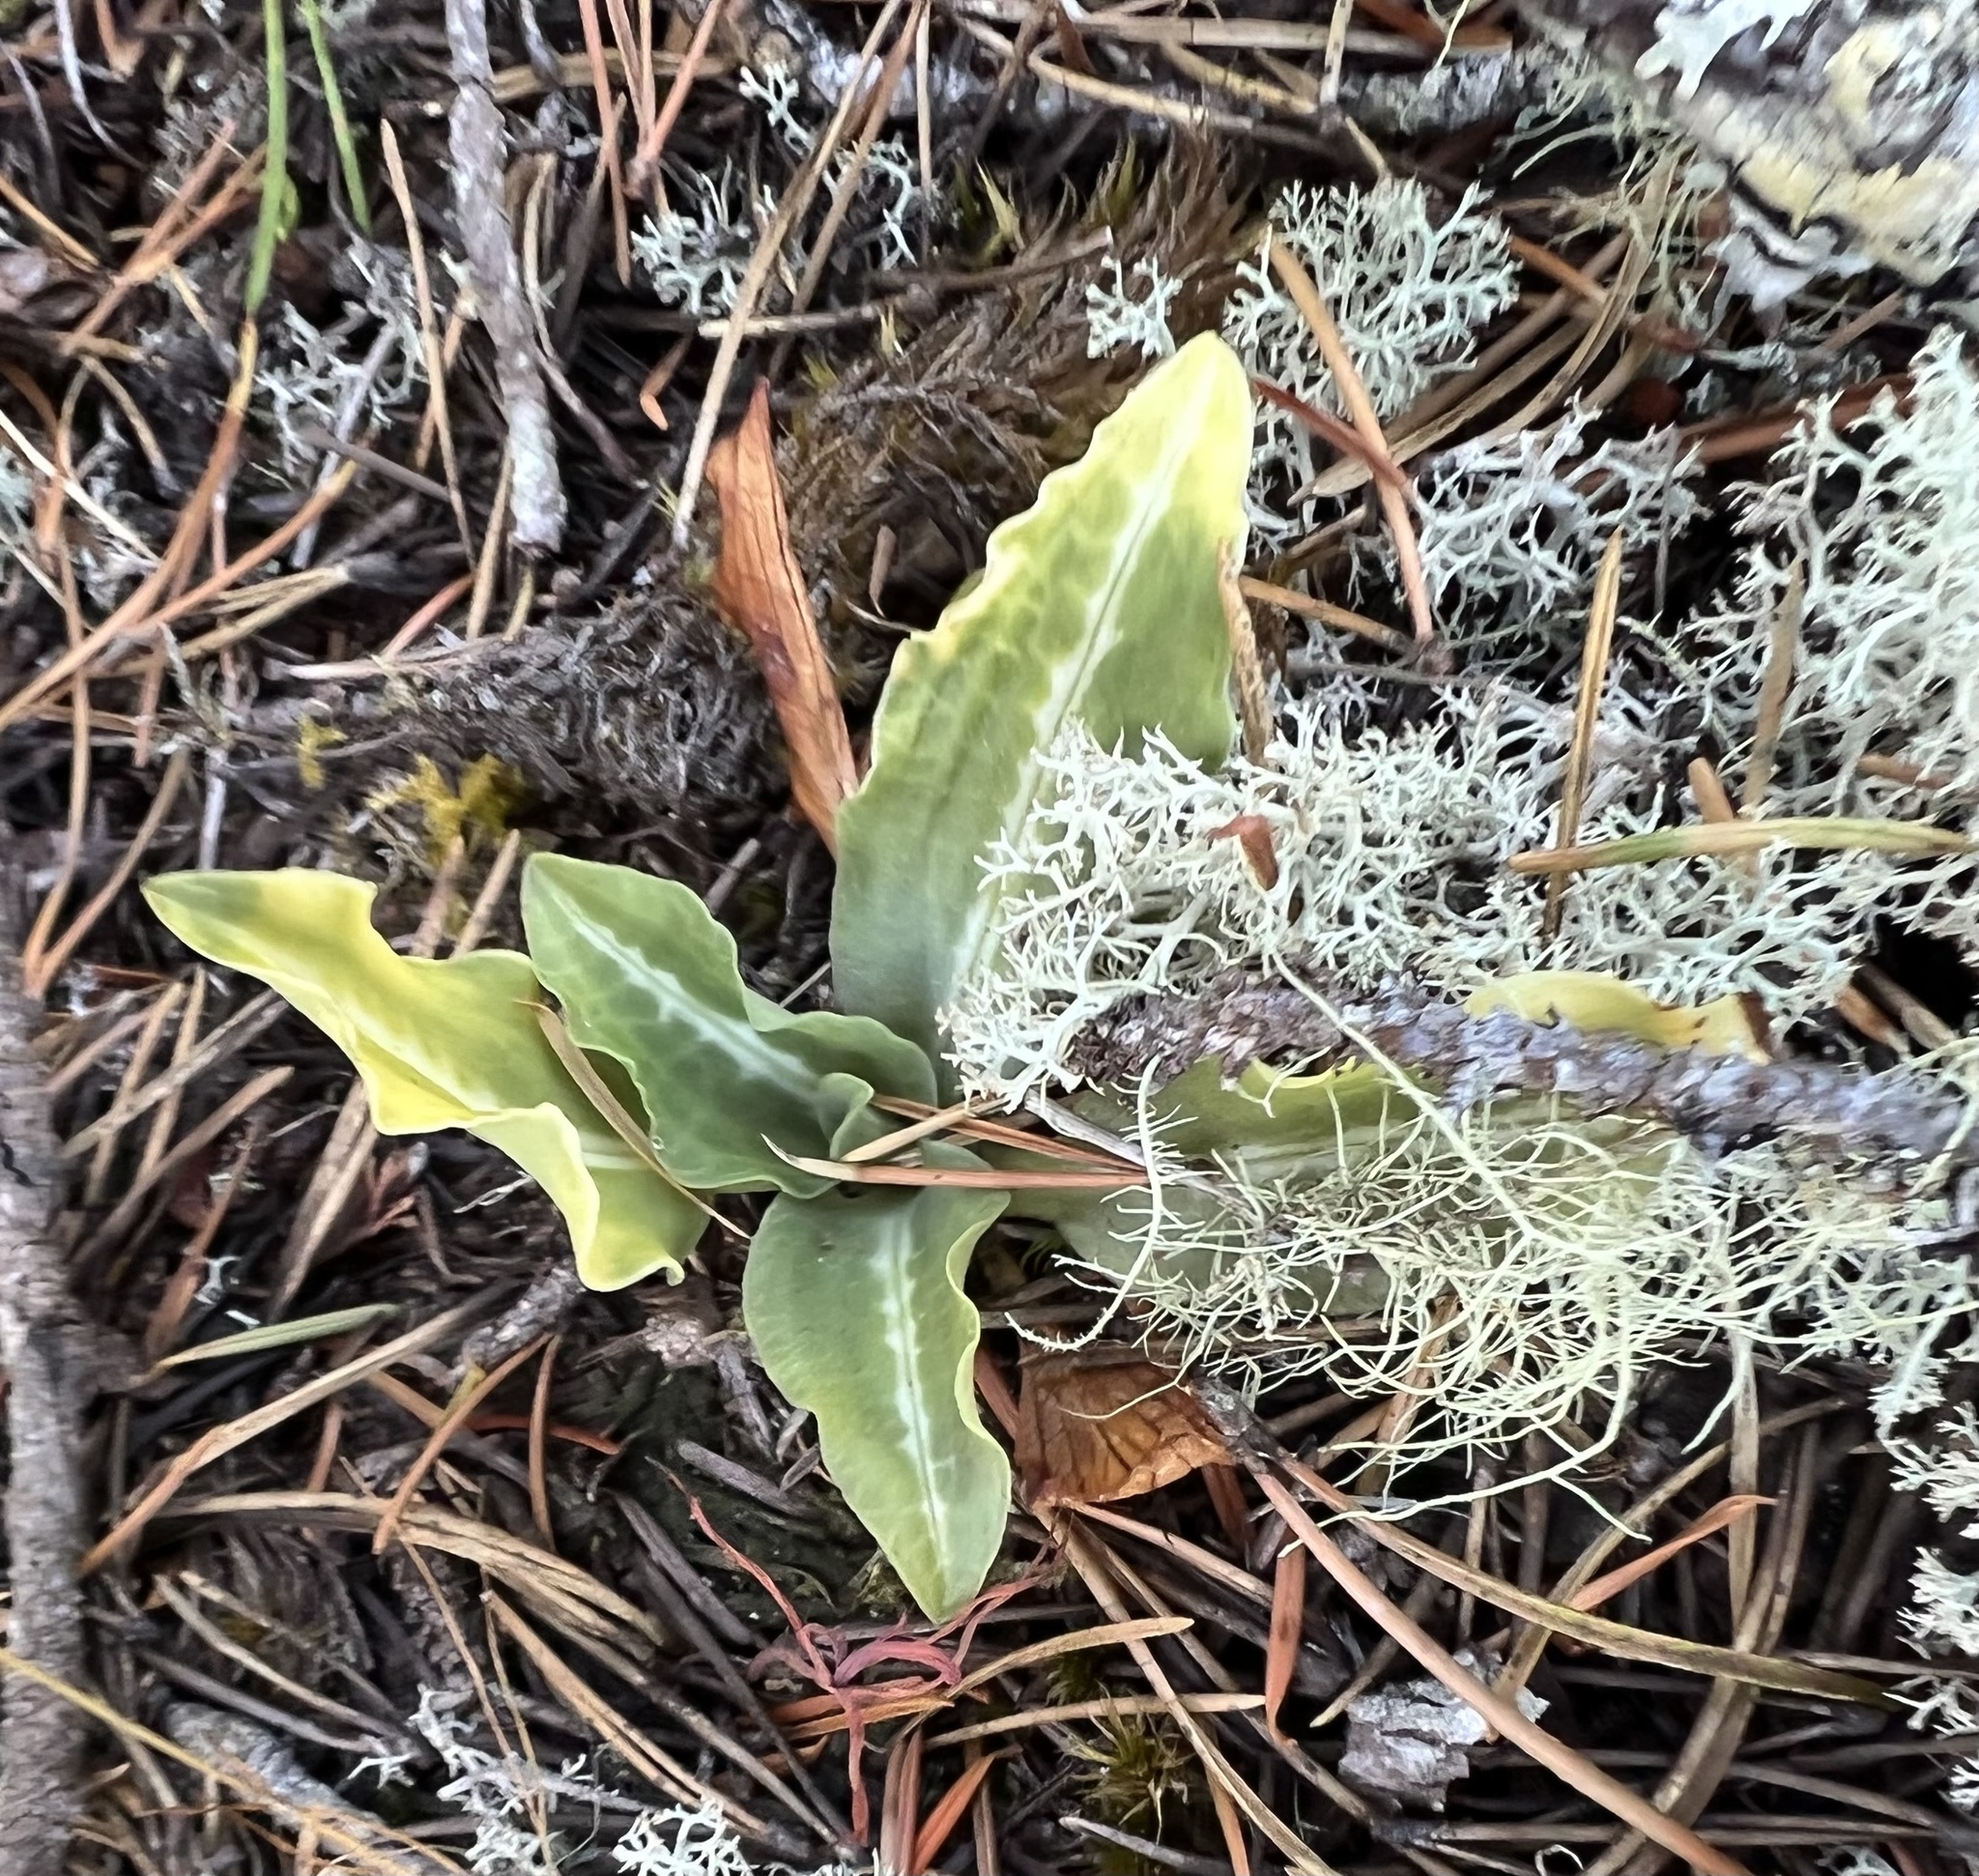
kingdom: Plantae
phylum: Tracheophyta
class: Liliopsida
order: Asparagales
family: Orchidaceae
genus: Goodyera
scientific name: Goodyera oblongifolia
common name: Giant rattlesnake-plantain
